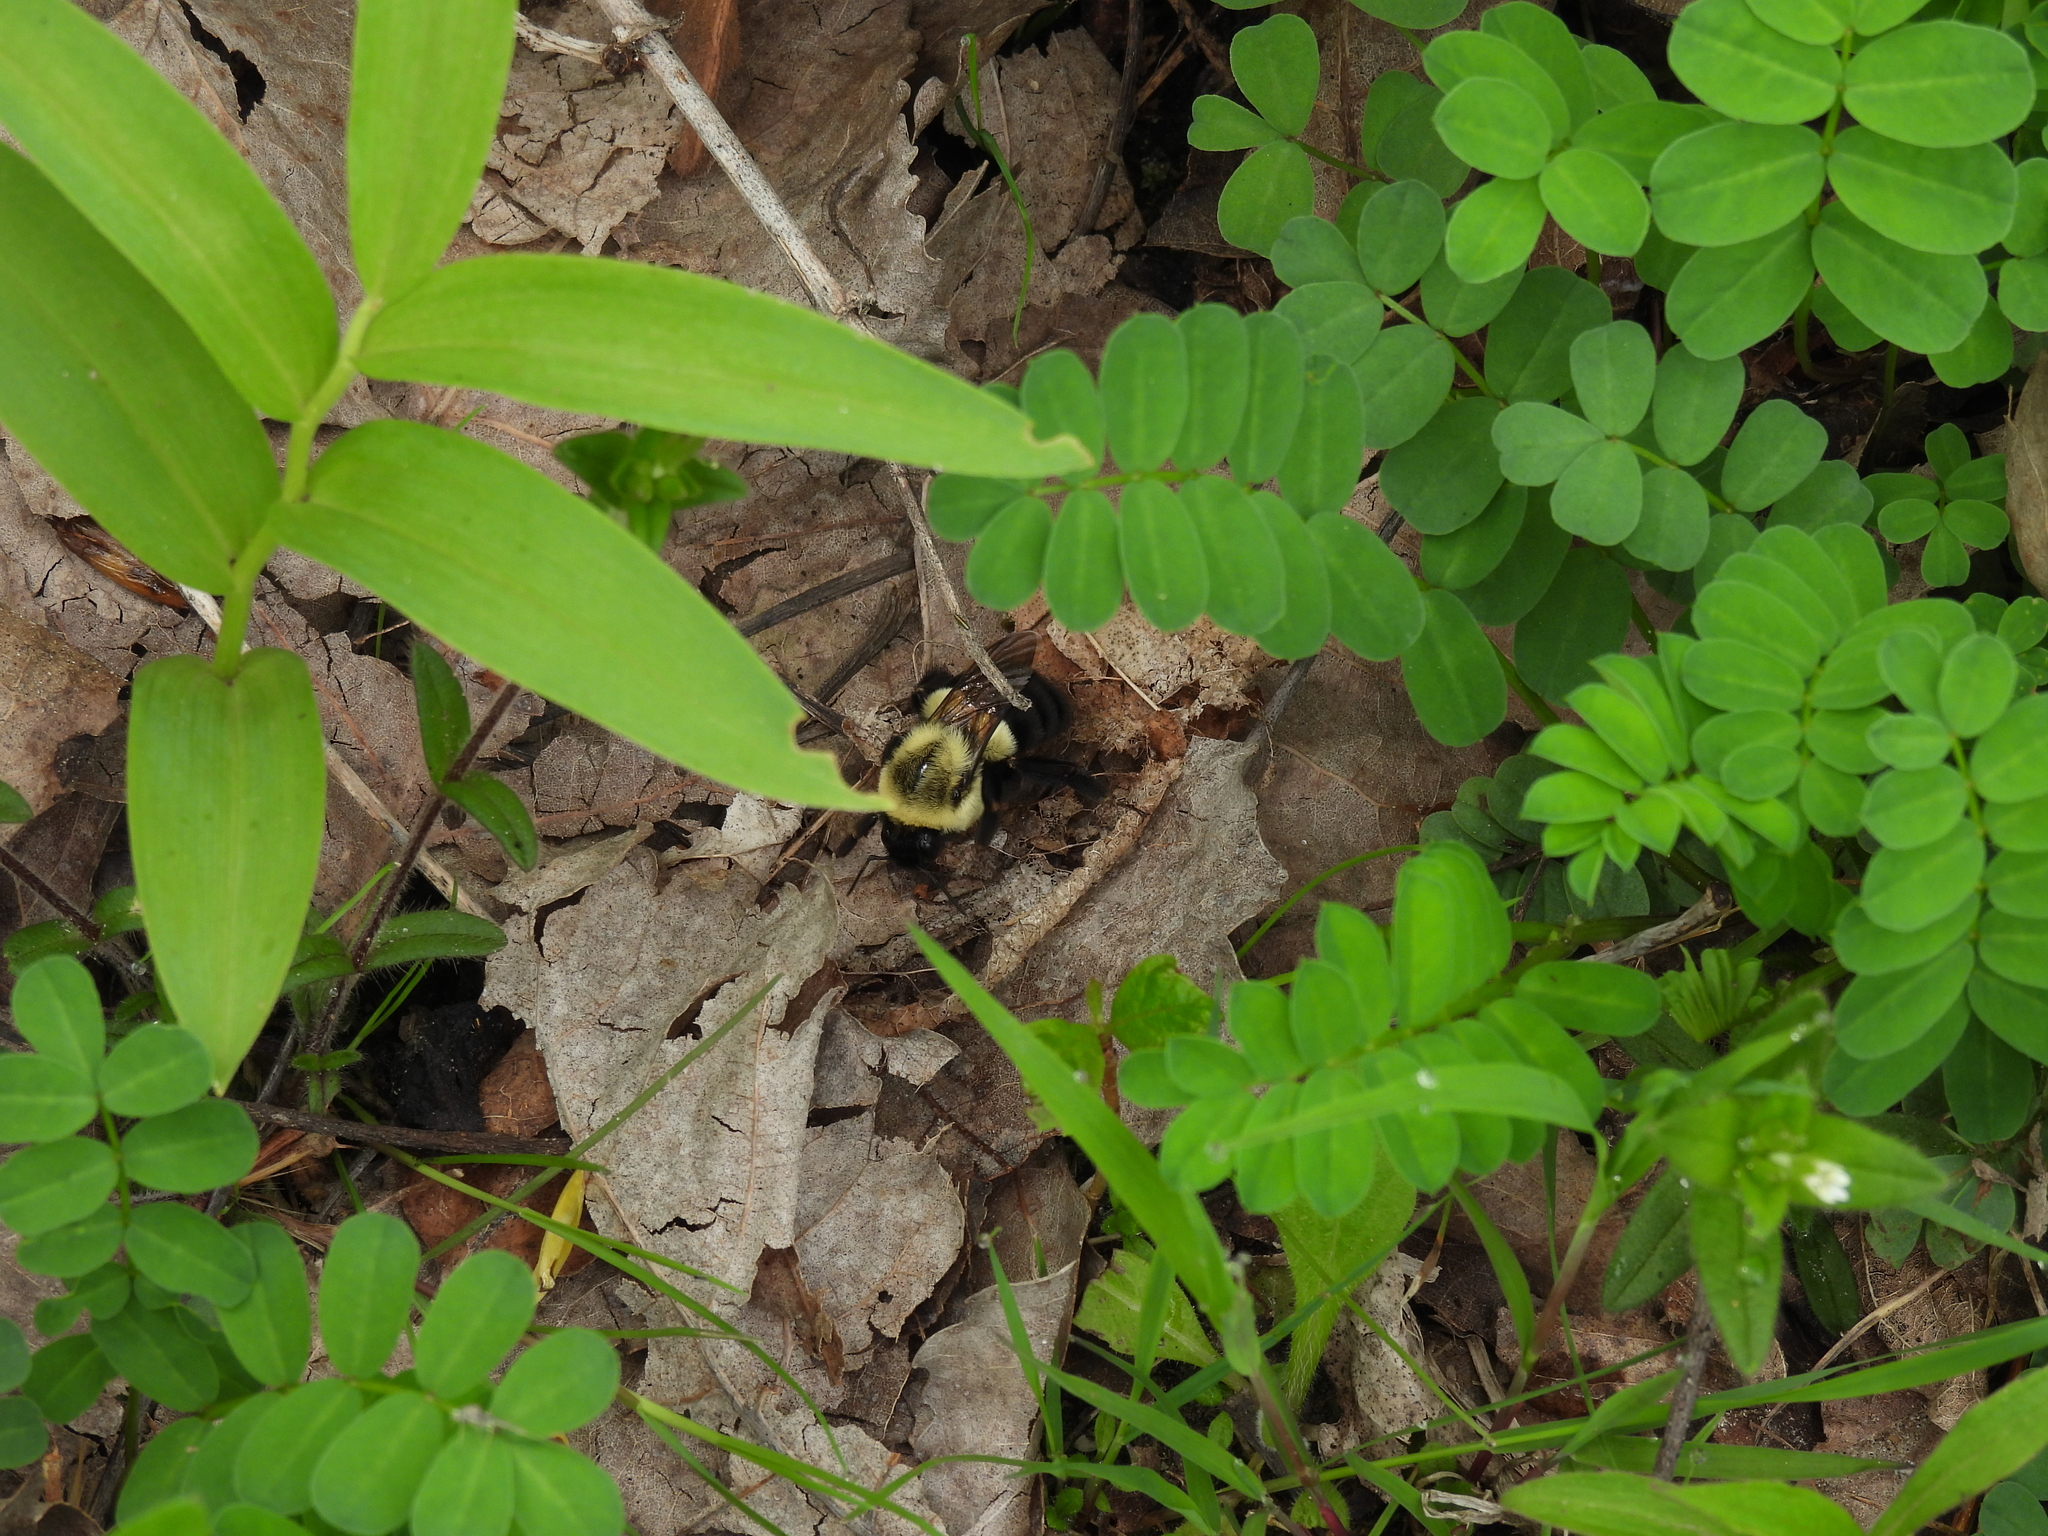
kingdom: Animalia
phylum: Arthropoda
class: Insecta
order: Hymenoptera
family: Apidae
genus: Bombus
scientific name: Bombus impatiens
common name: Common eastern bumble bee
